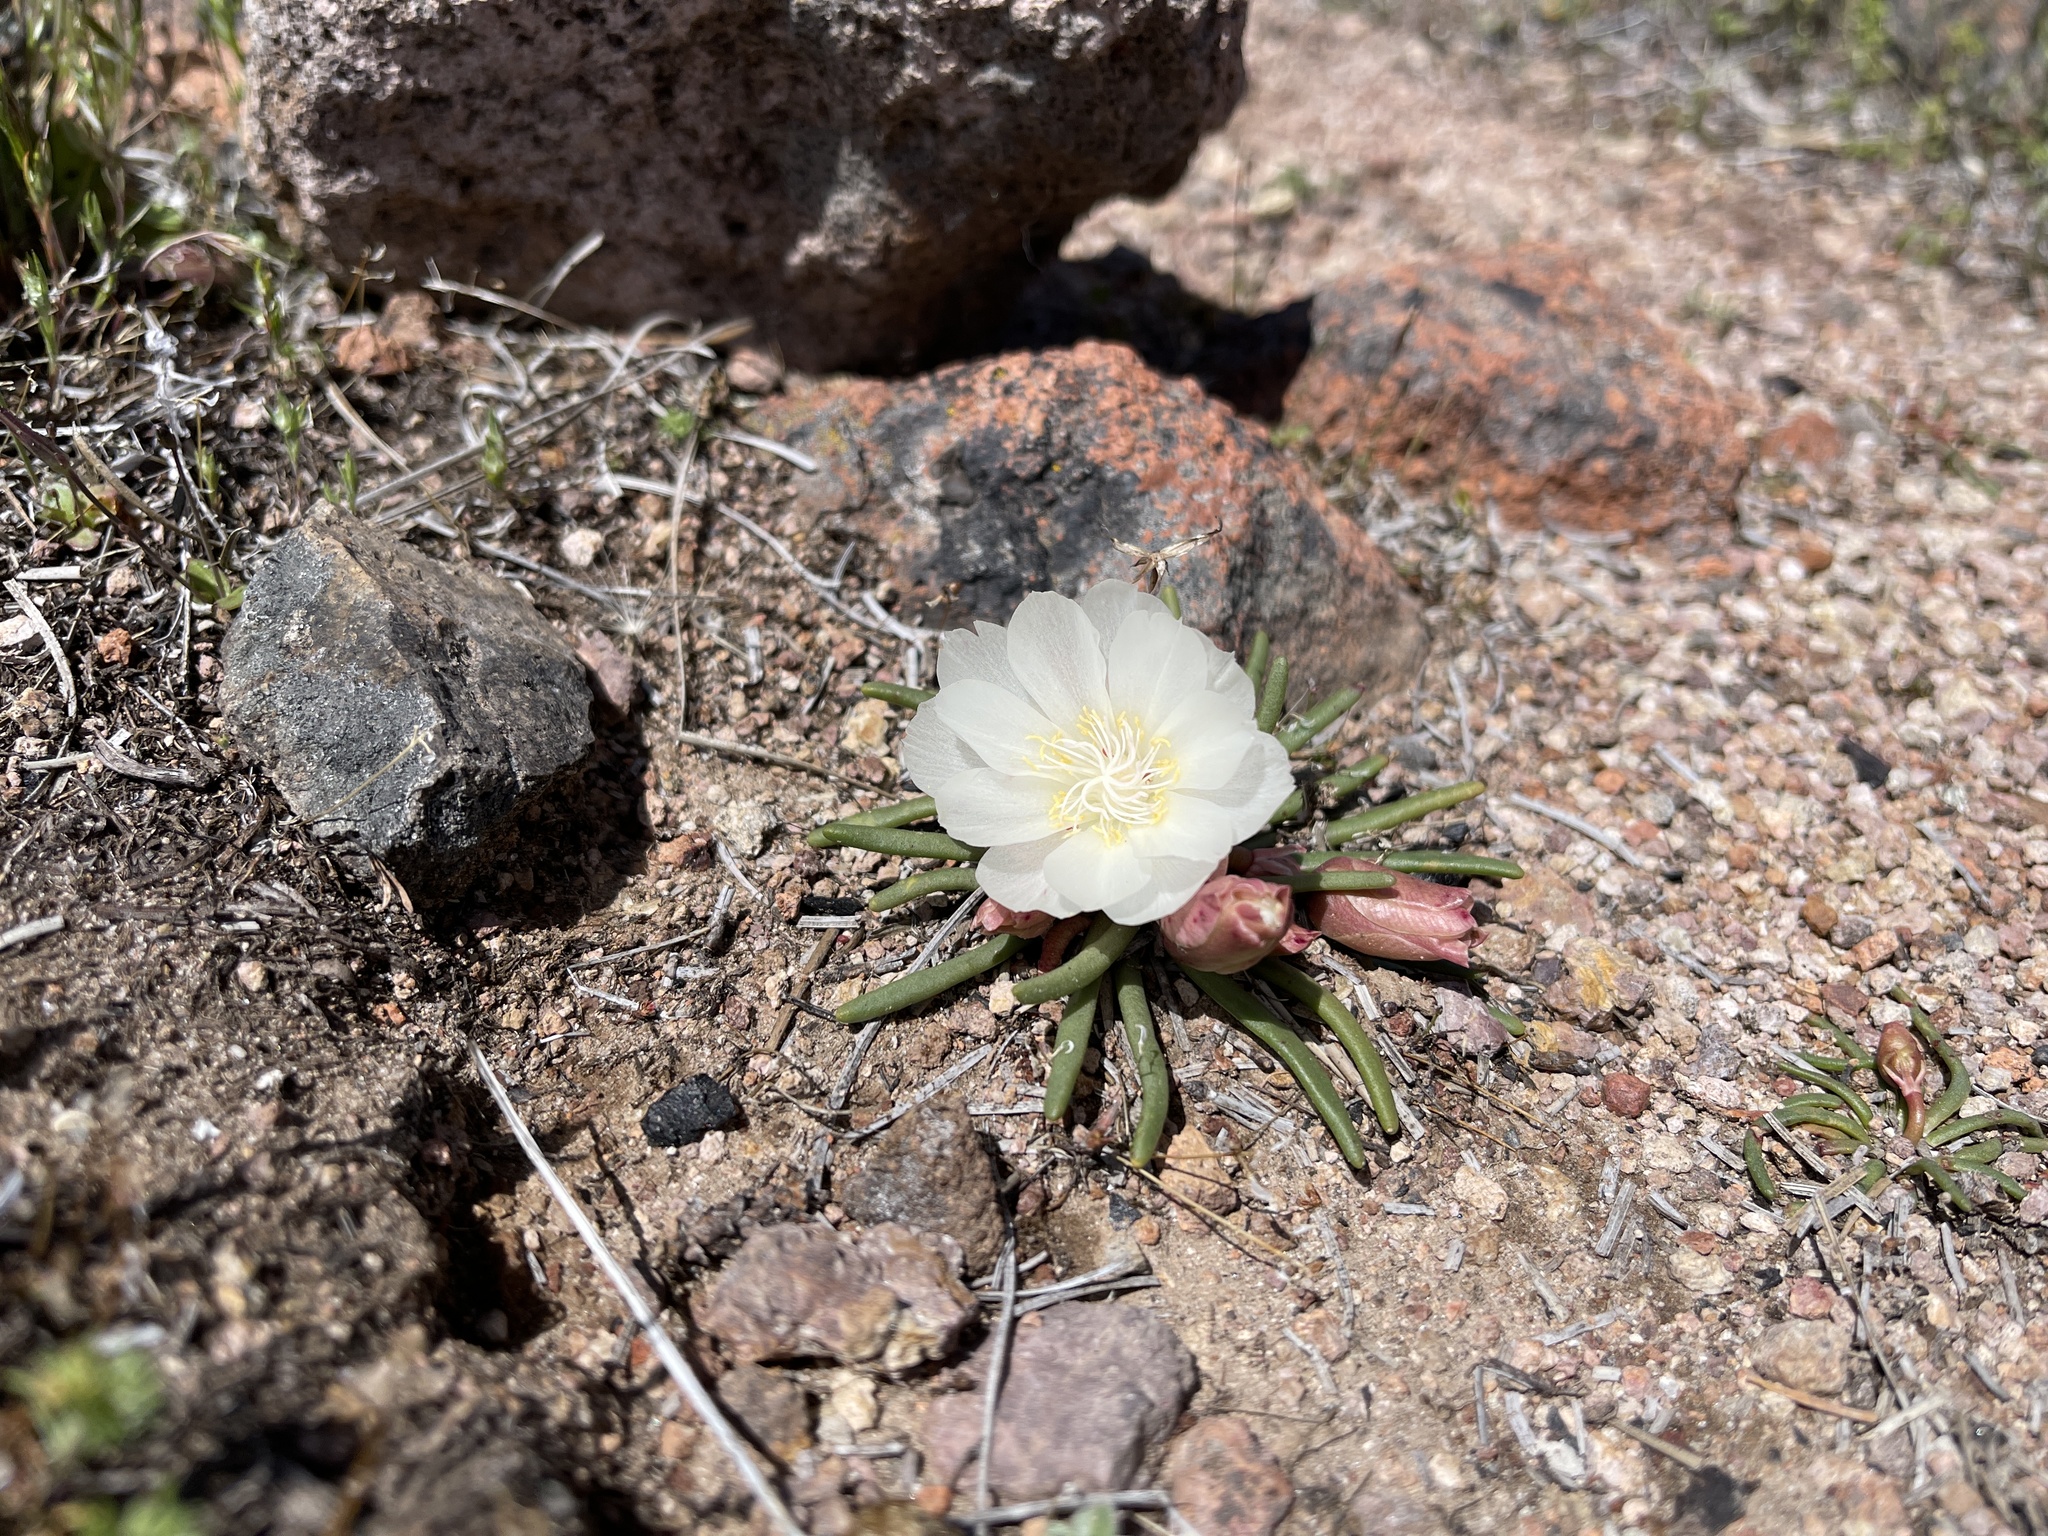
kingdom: Plantae
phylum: Tracheophyta
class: Magnoliopsida
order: Caryophyllales
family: Montiaceae
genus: Lewisia
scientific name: Lewisia rediviva
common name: Bitter-root
